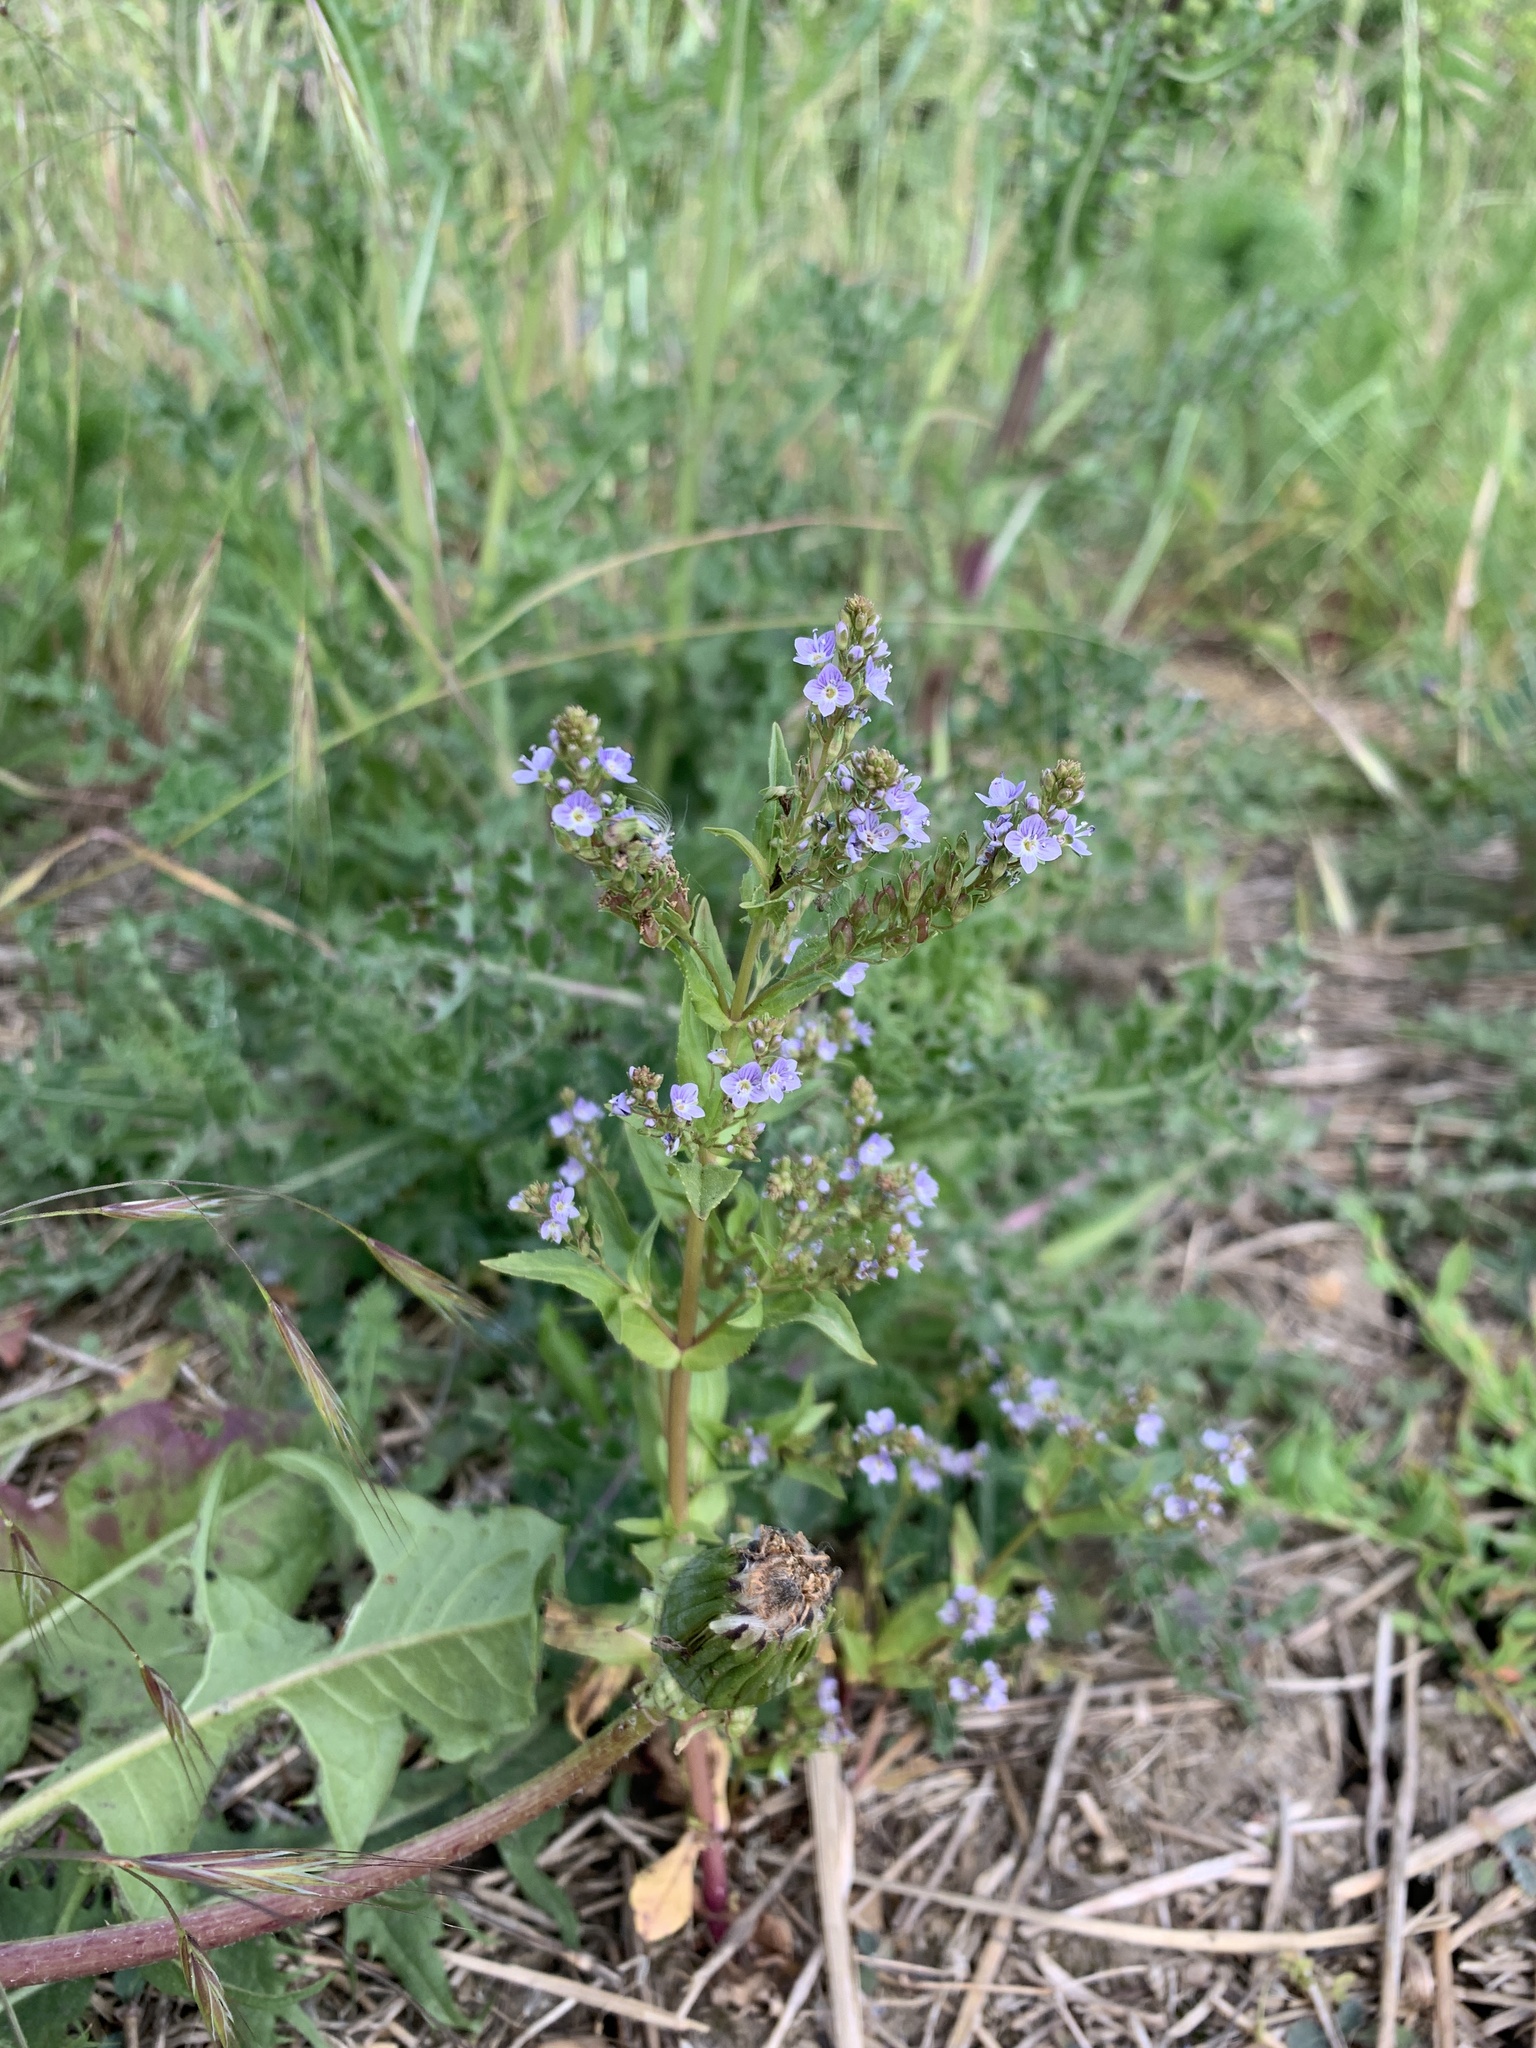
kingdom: Plantae
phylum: Tracheophyta
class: Magnoliopsida
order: Lamiales
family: Plantaginaceae
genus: Veronica
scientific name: Veronica anagallis-aquatica
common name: Water speedwell
